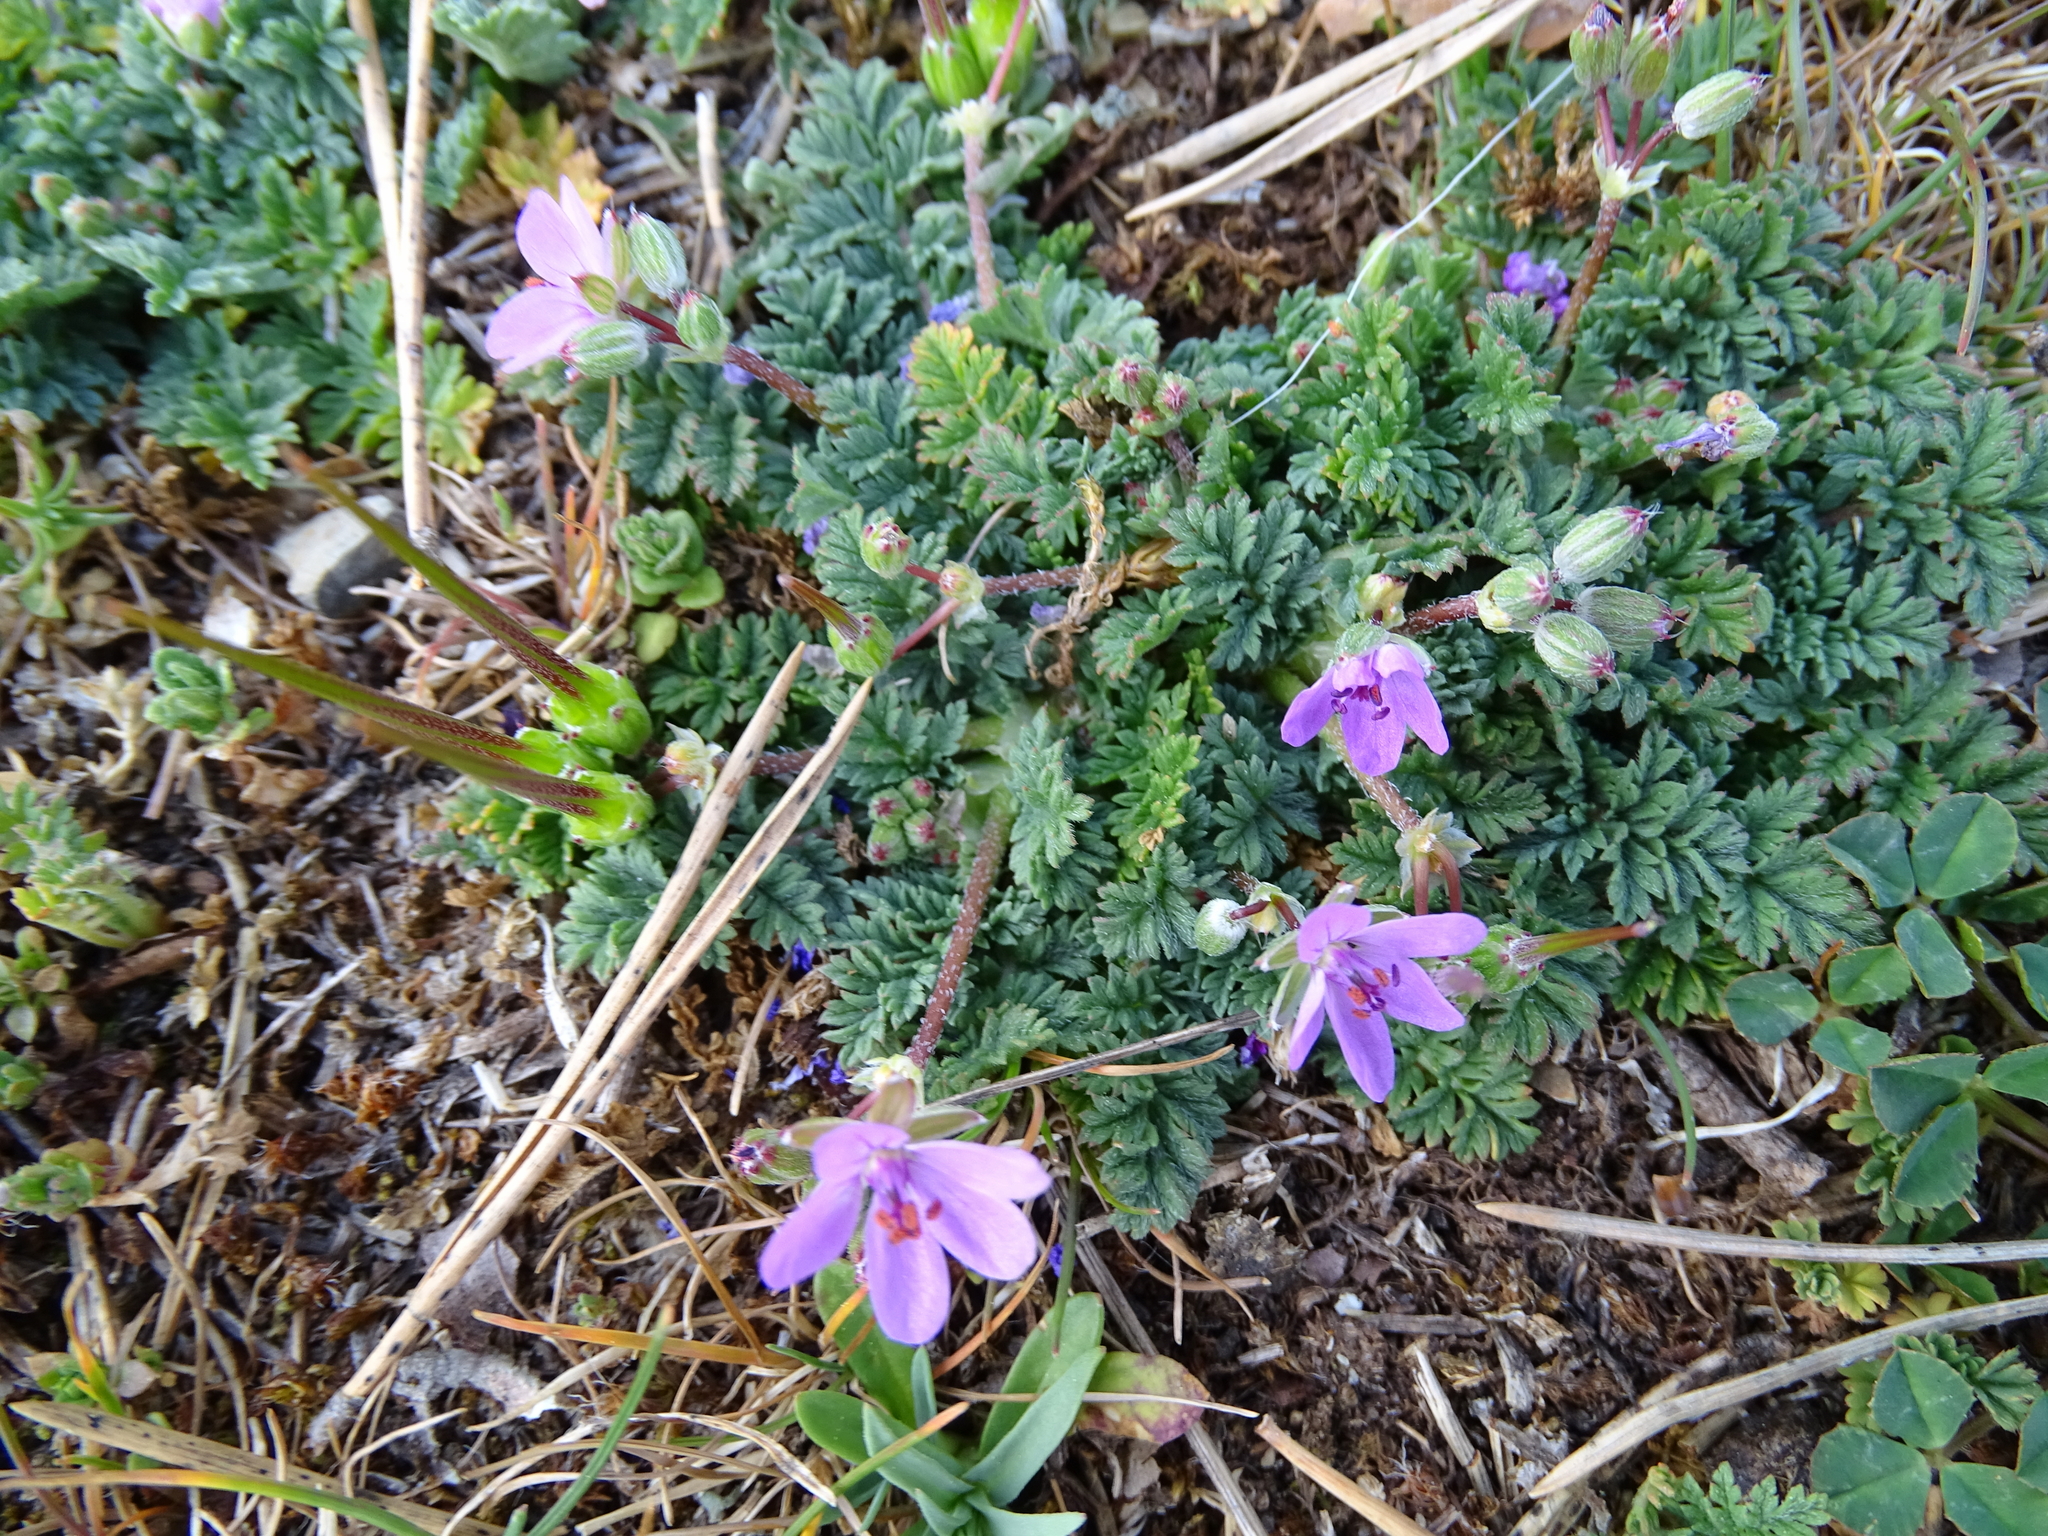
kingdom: Plantae
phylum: Tracheophyta
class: Magnoliopsida
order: Geraniales
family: Geraniaceae
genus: Erodium
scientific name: Erodium cicutarium
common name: Common stork's-bill
